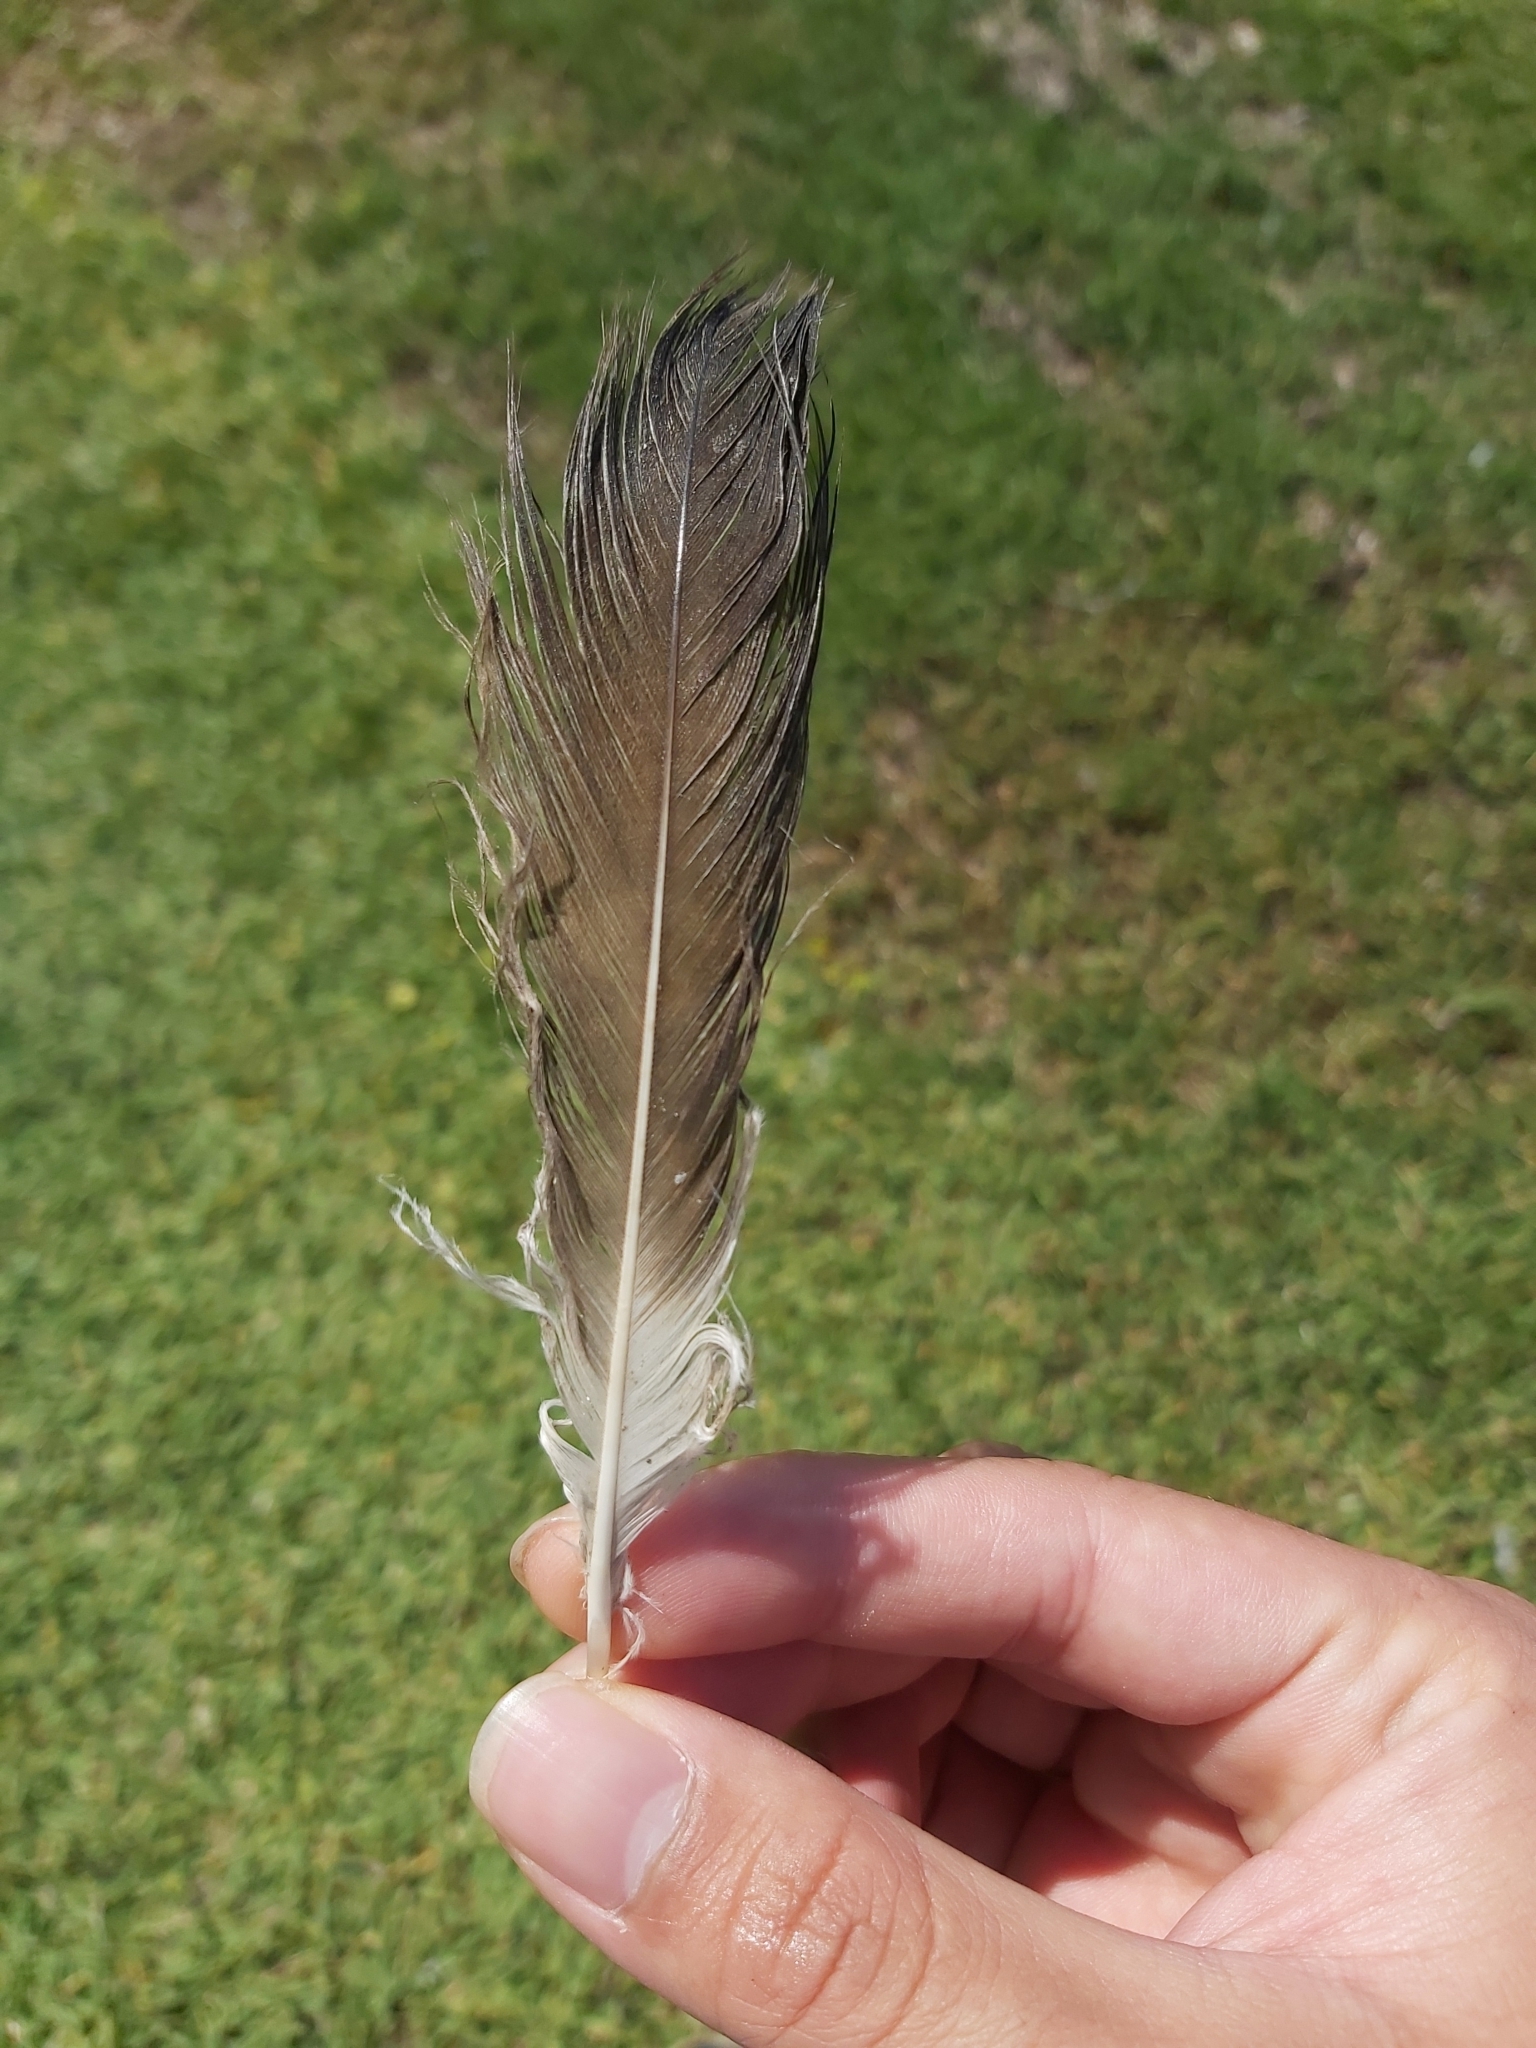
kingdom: Animalia
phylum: Chordata
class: Aves
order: Pelecaniformes
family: Pelecanidae
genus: Pelecanus
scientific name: Pelecanus conspicillatus
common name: Australian pelican
